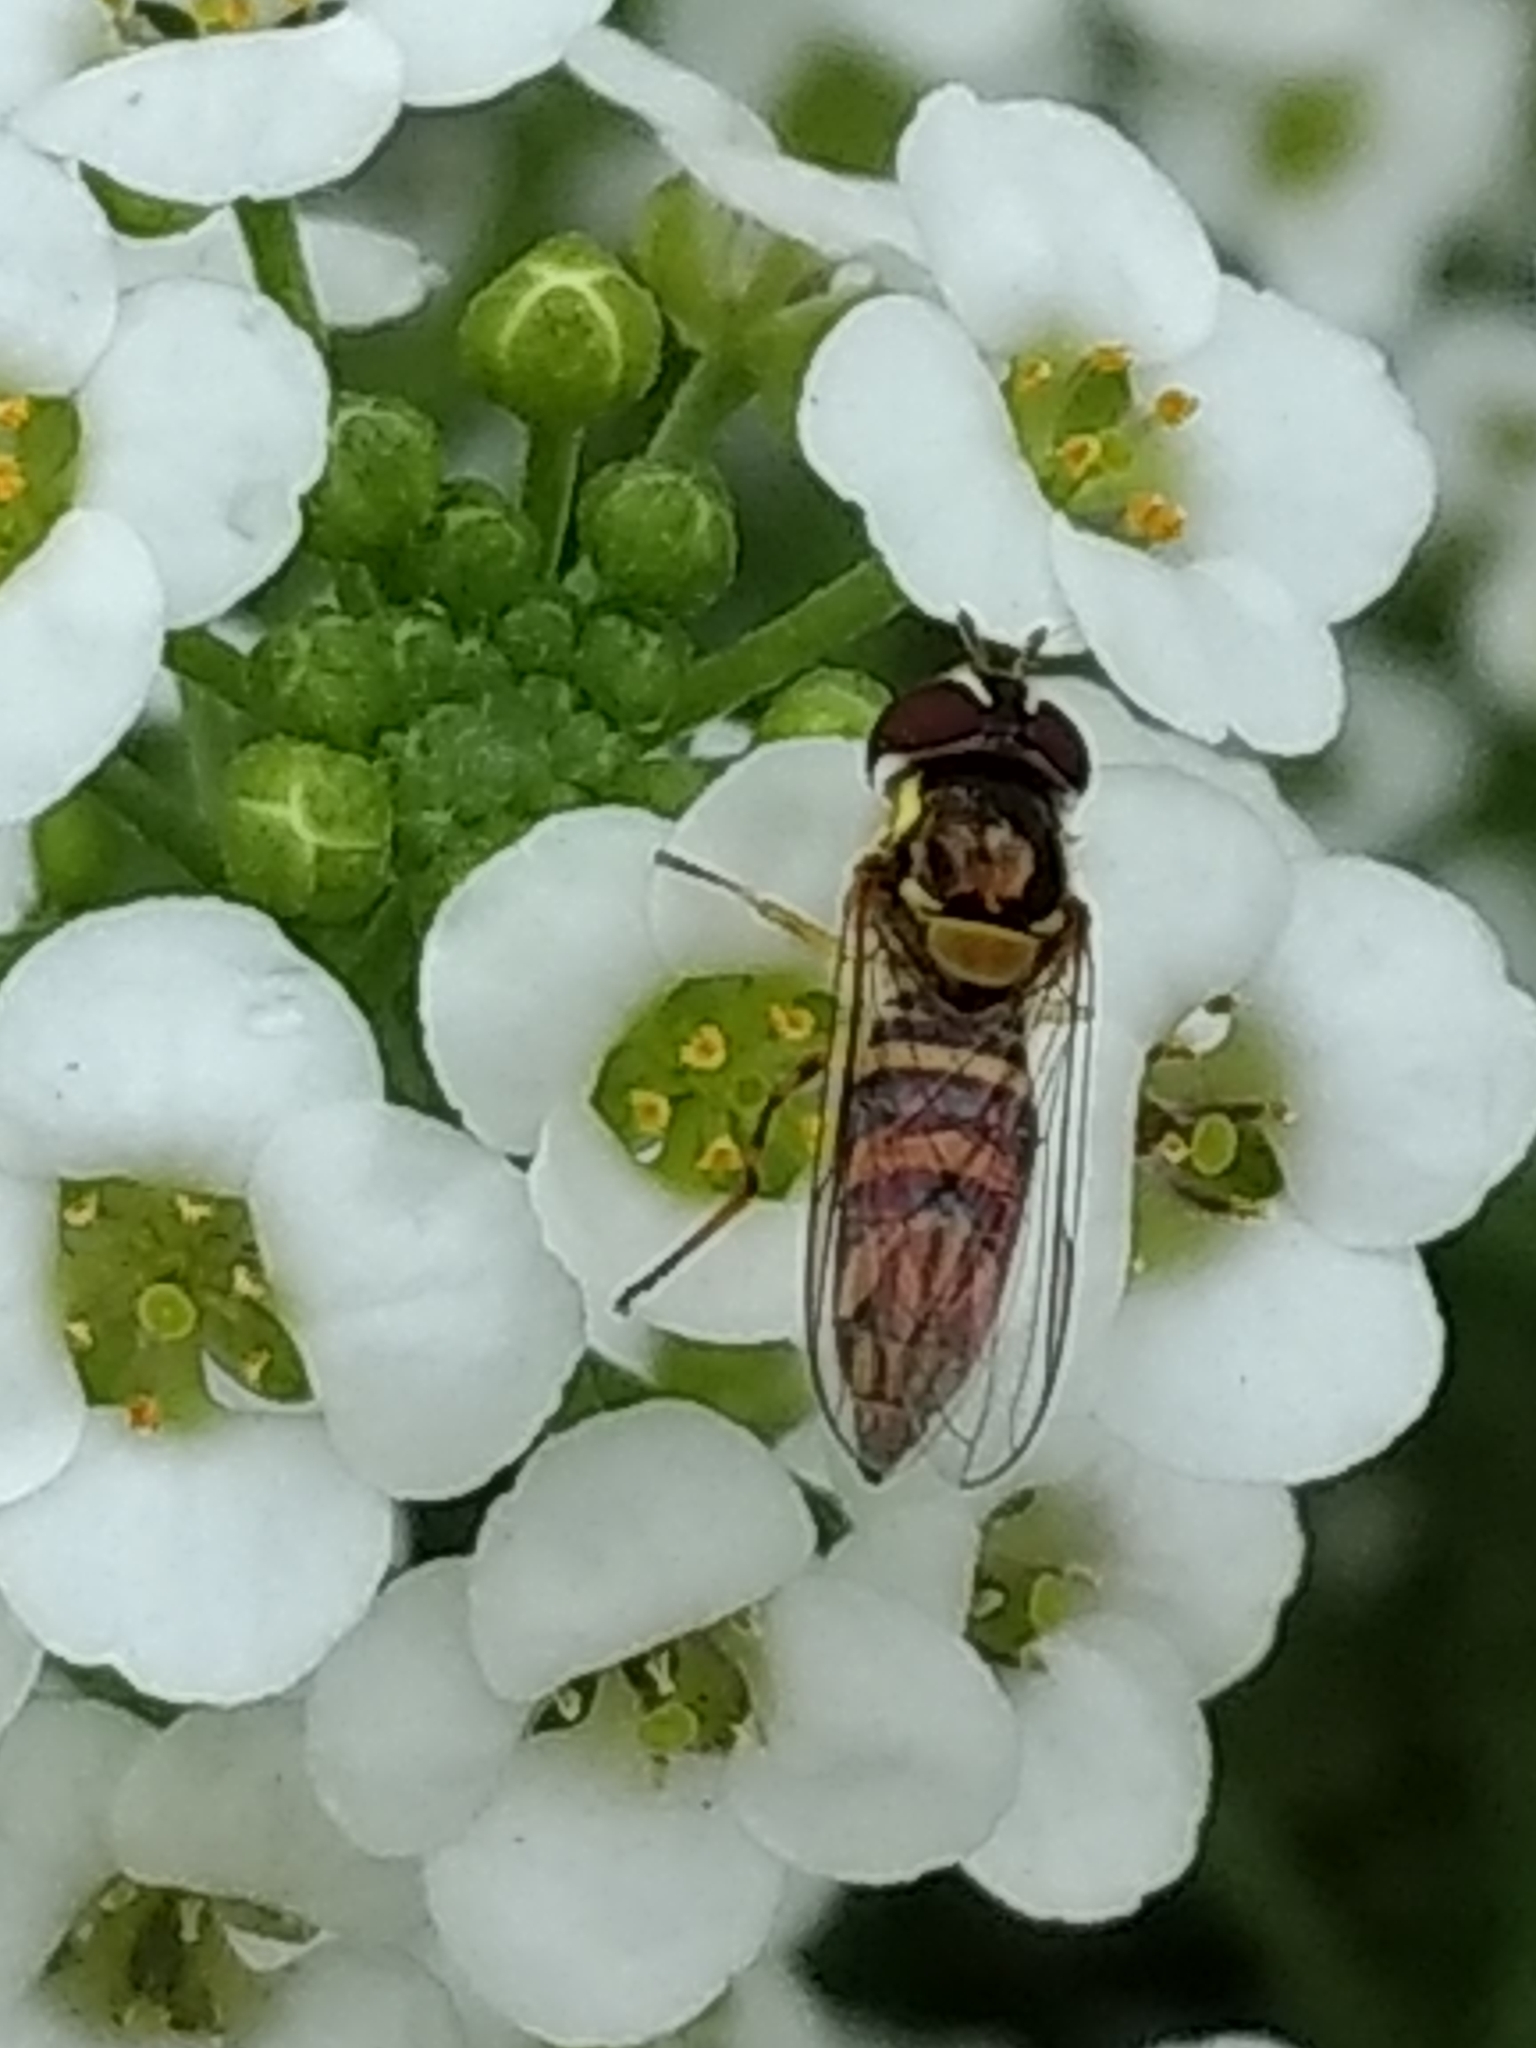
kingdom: Animalia
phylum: Arthropoda
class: Insecta
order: Diptera
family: Syrphidae
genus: Allograpta
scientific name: Allograpta obliqua
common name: Common oblique syrphid
